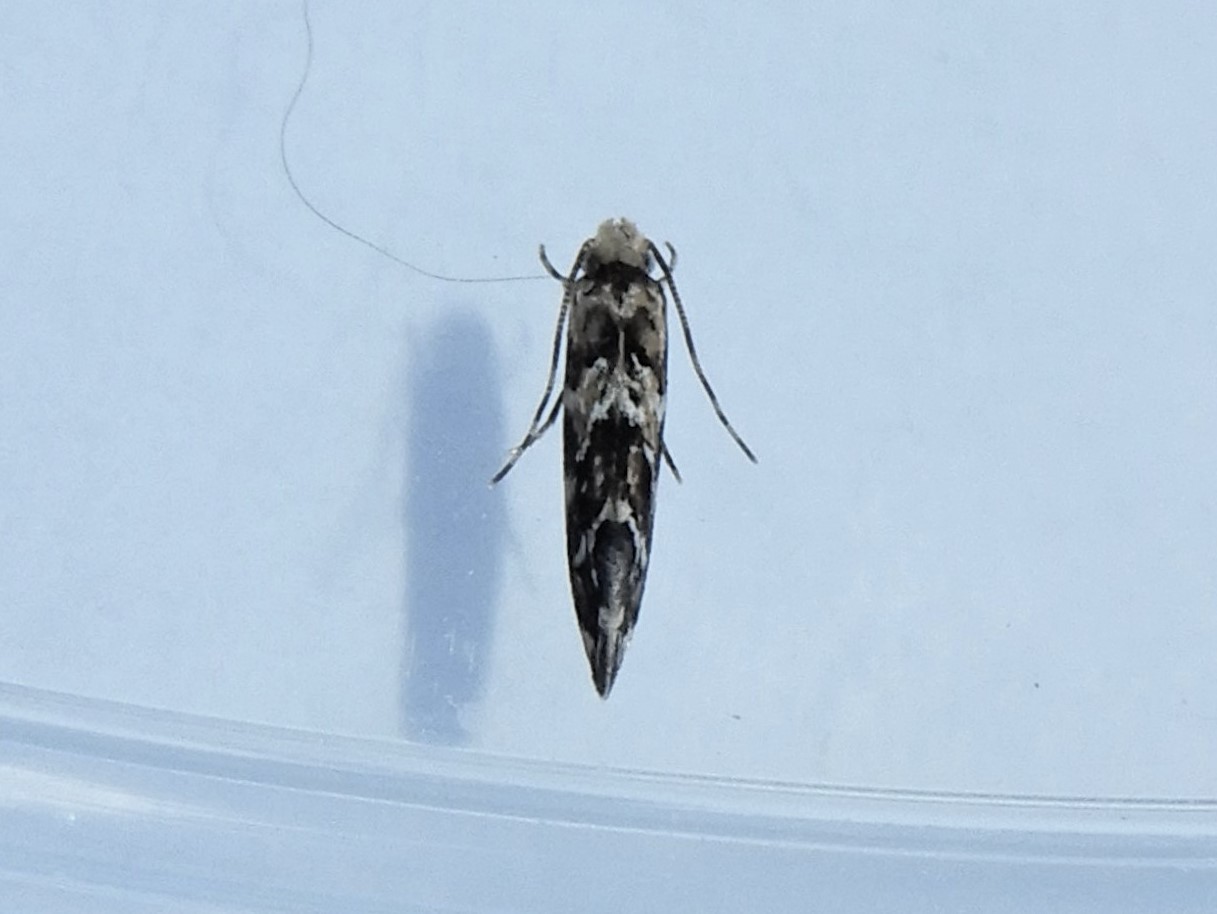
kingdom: Animalia
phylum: Arthropoda
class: Insecta
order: Lepidoptera
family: Dryadaulidae
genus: Dryadaula
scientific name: Dryadaula pactolia
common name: Cellar clothes
